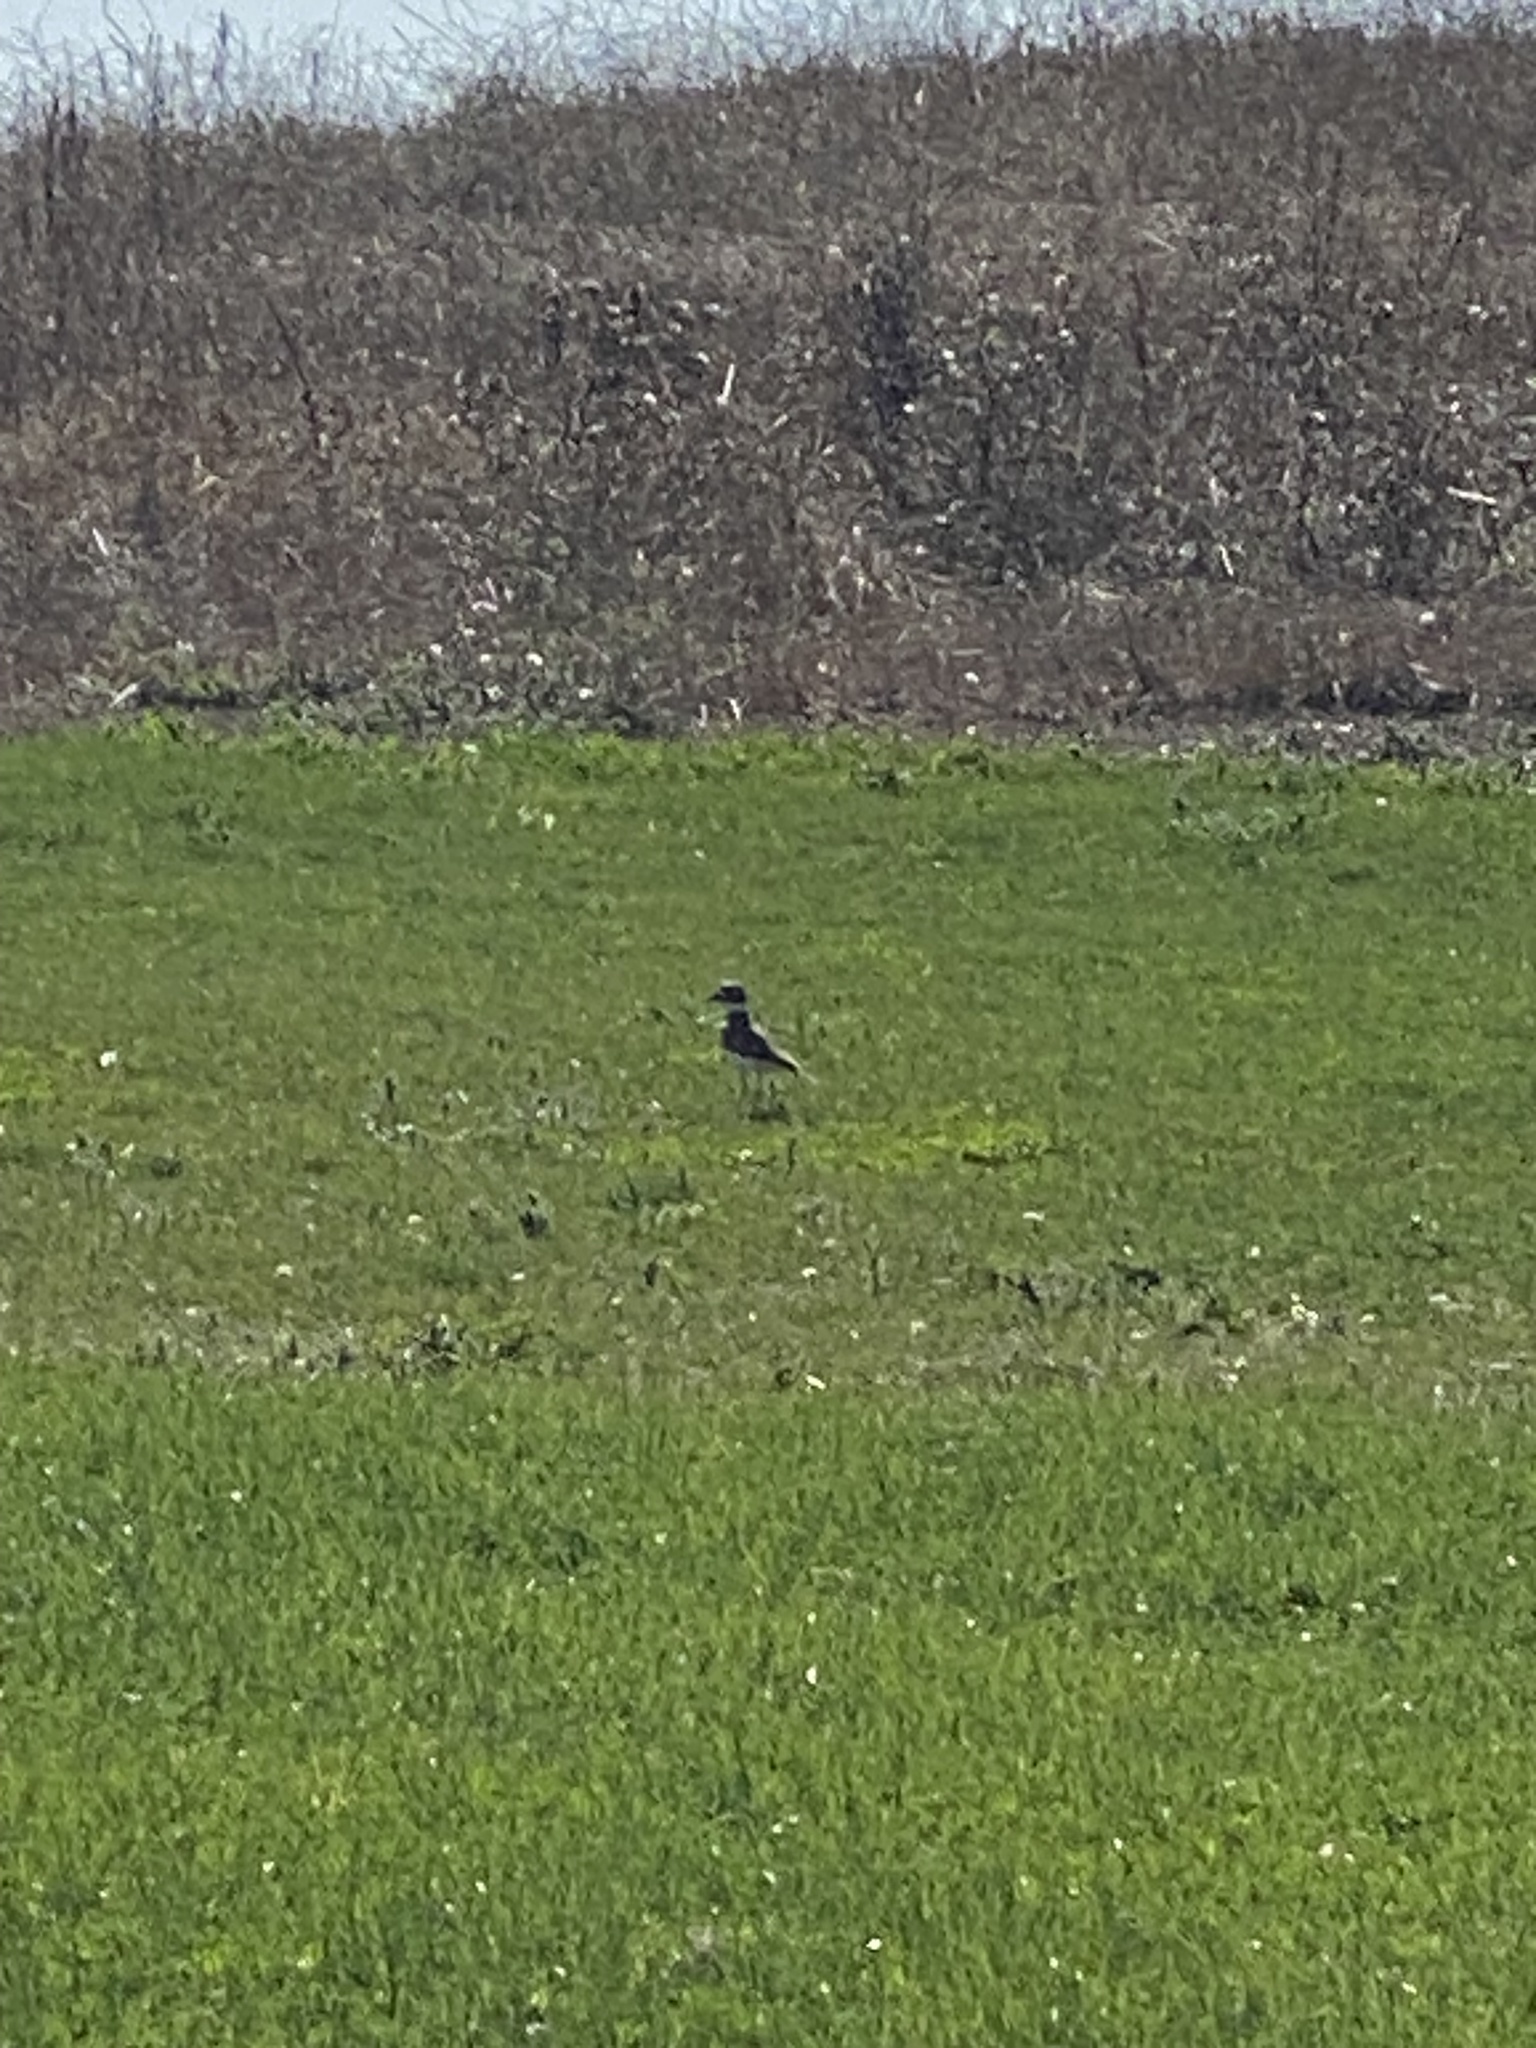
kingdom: Animalia
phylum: Chordata
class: Aves
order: Charadriiformes
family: Charadriidae
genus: Charadrius
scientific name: Charadrius vociferus
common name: Killdeer
